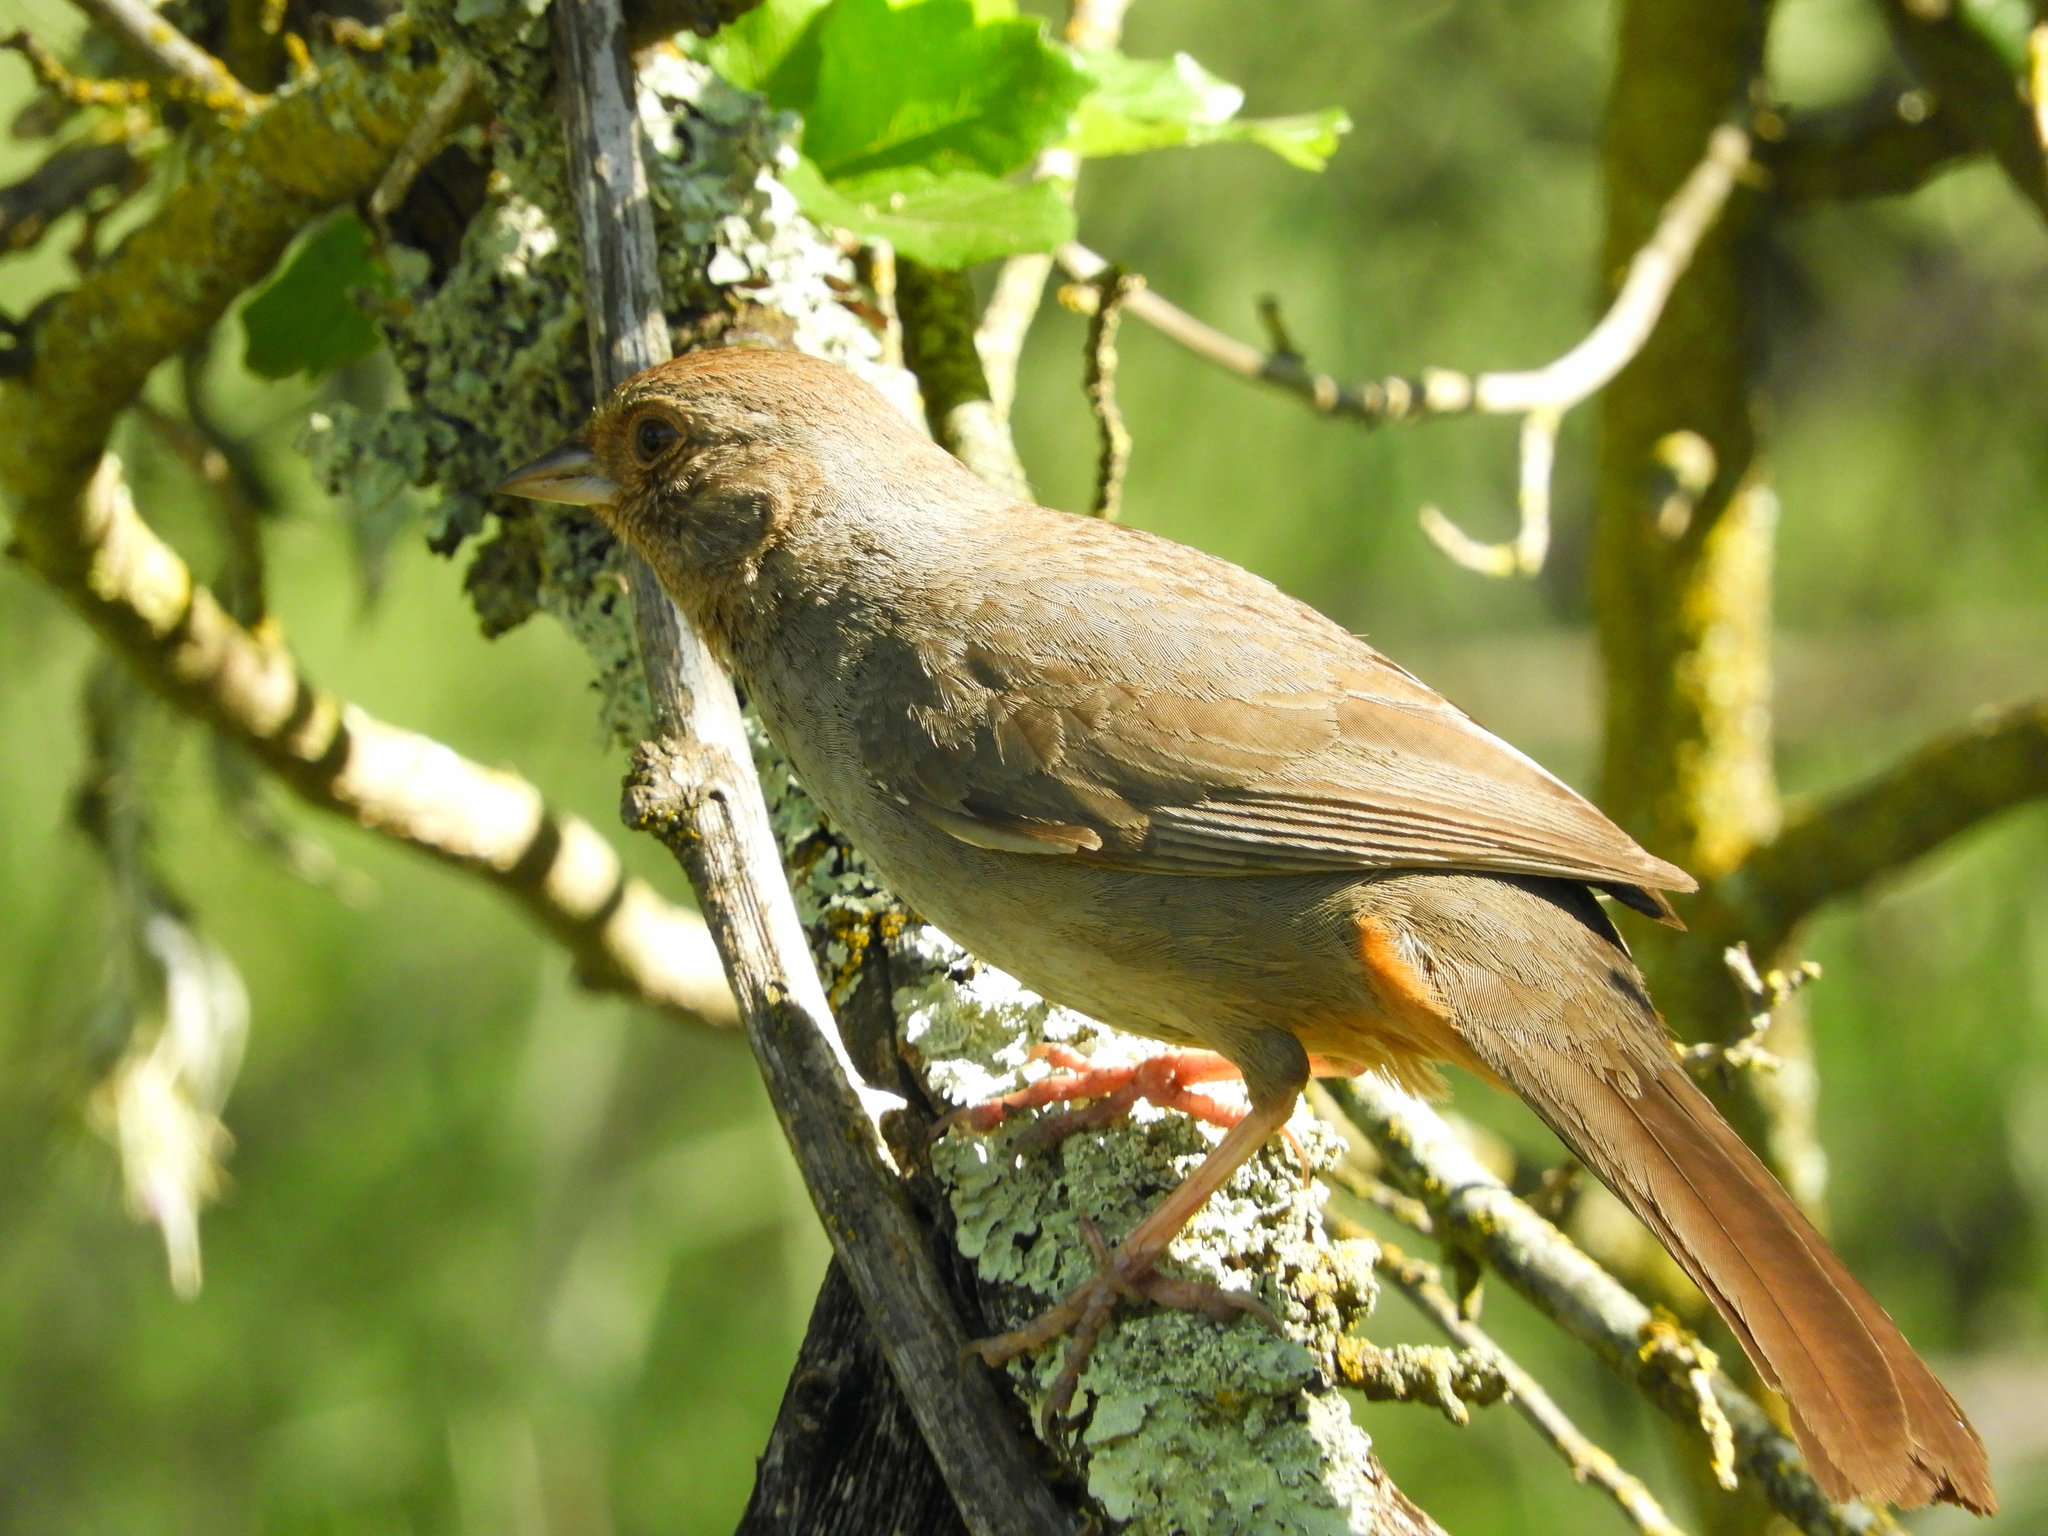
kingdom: Animalia
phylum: Chordata
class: Aves
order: Passeriformes
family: Passerellidae
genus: Melozone
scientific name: Melozone crissalis
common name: California towhee
